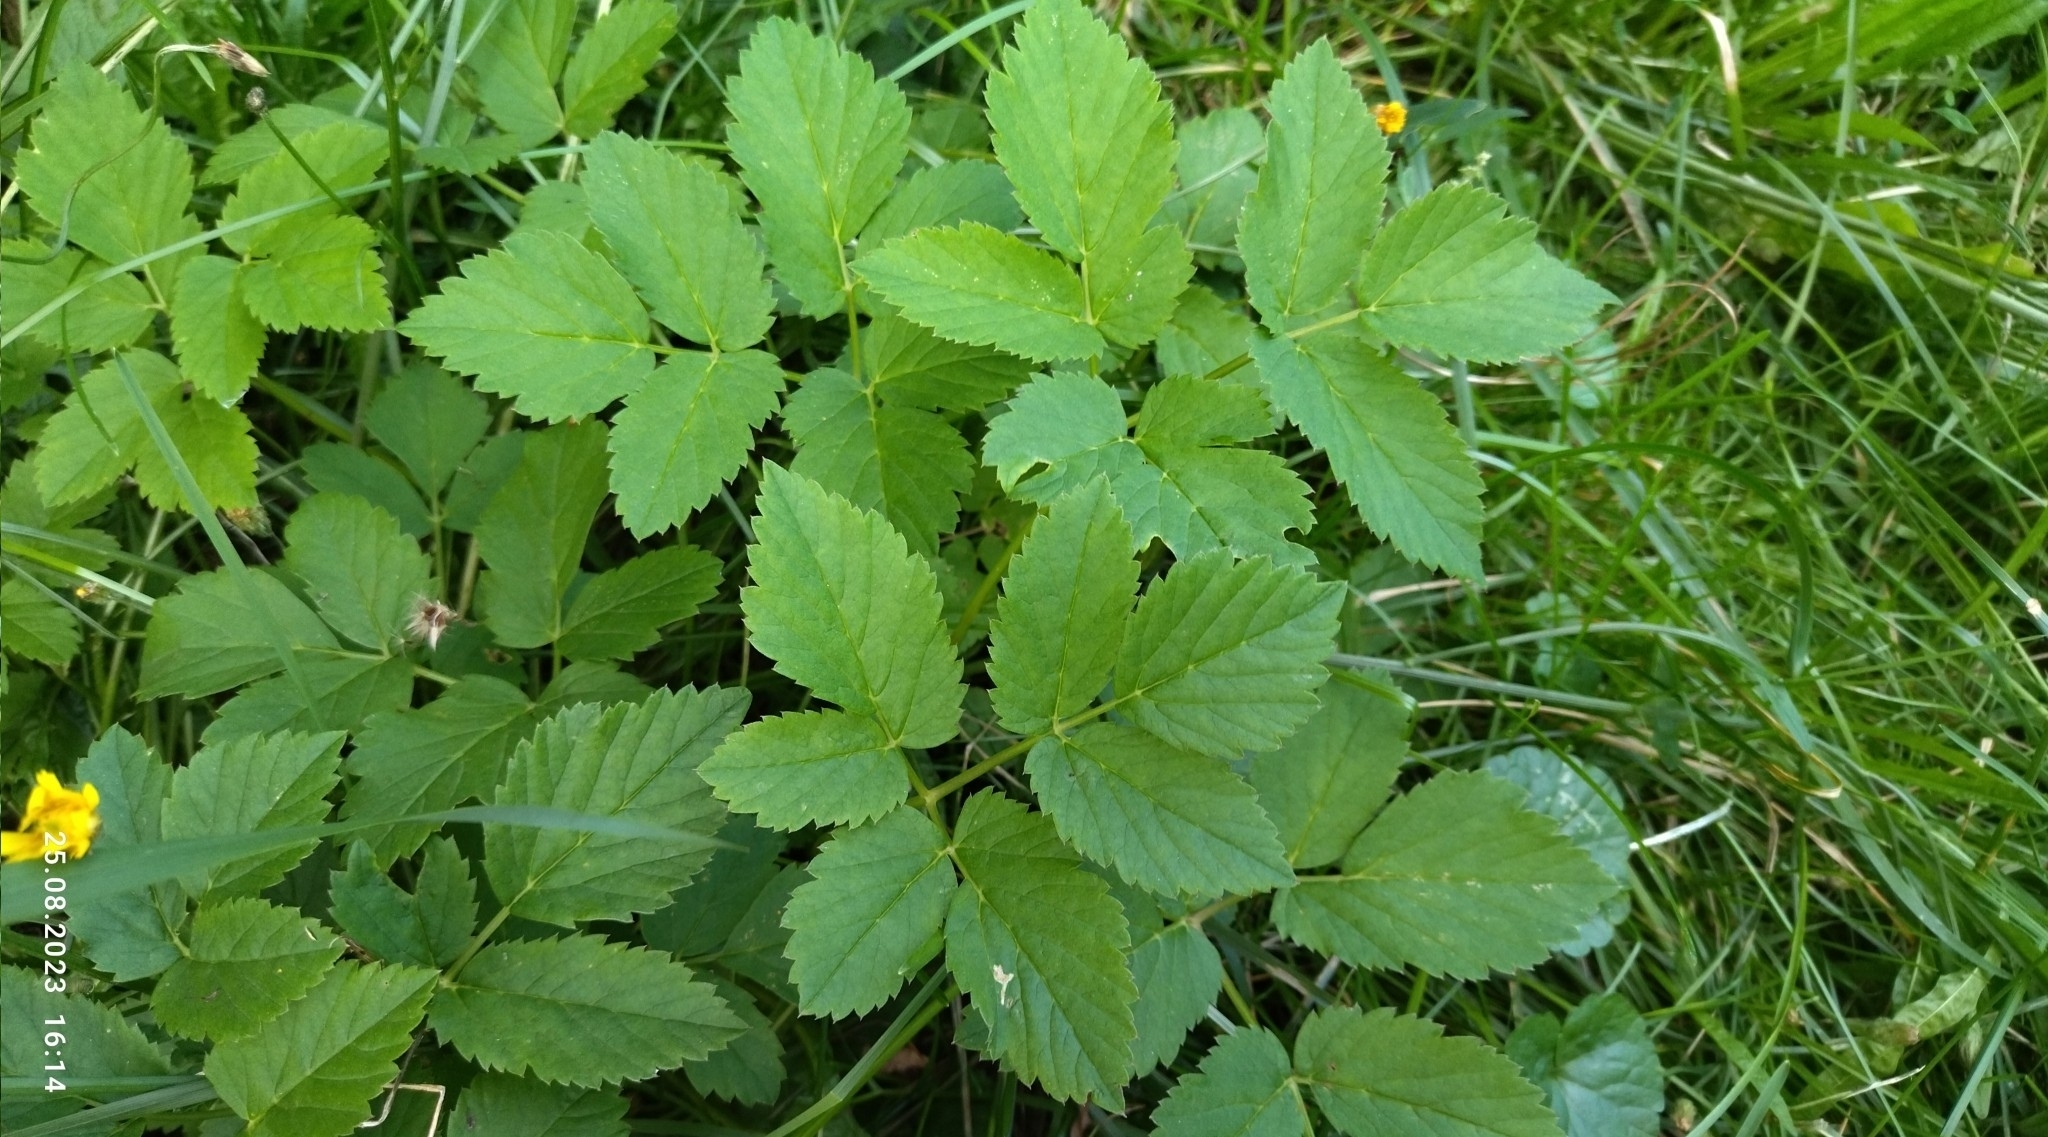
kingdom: Plantae
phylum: Tracheophyta
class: Magnoliopsida
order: Apiales
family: Apiaceae
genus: Aegopodium
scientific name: Aegopodium podagraria
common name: Ground-elder
